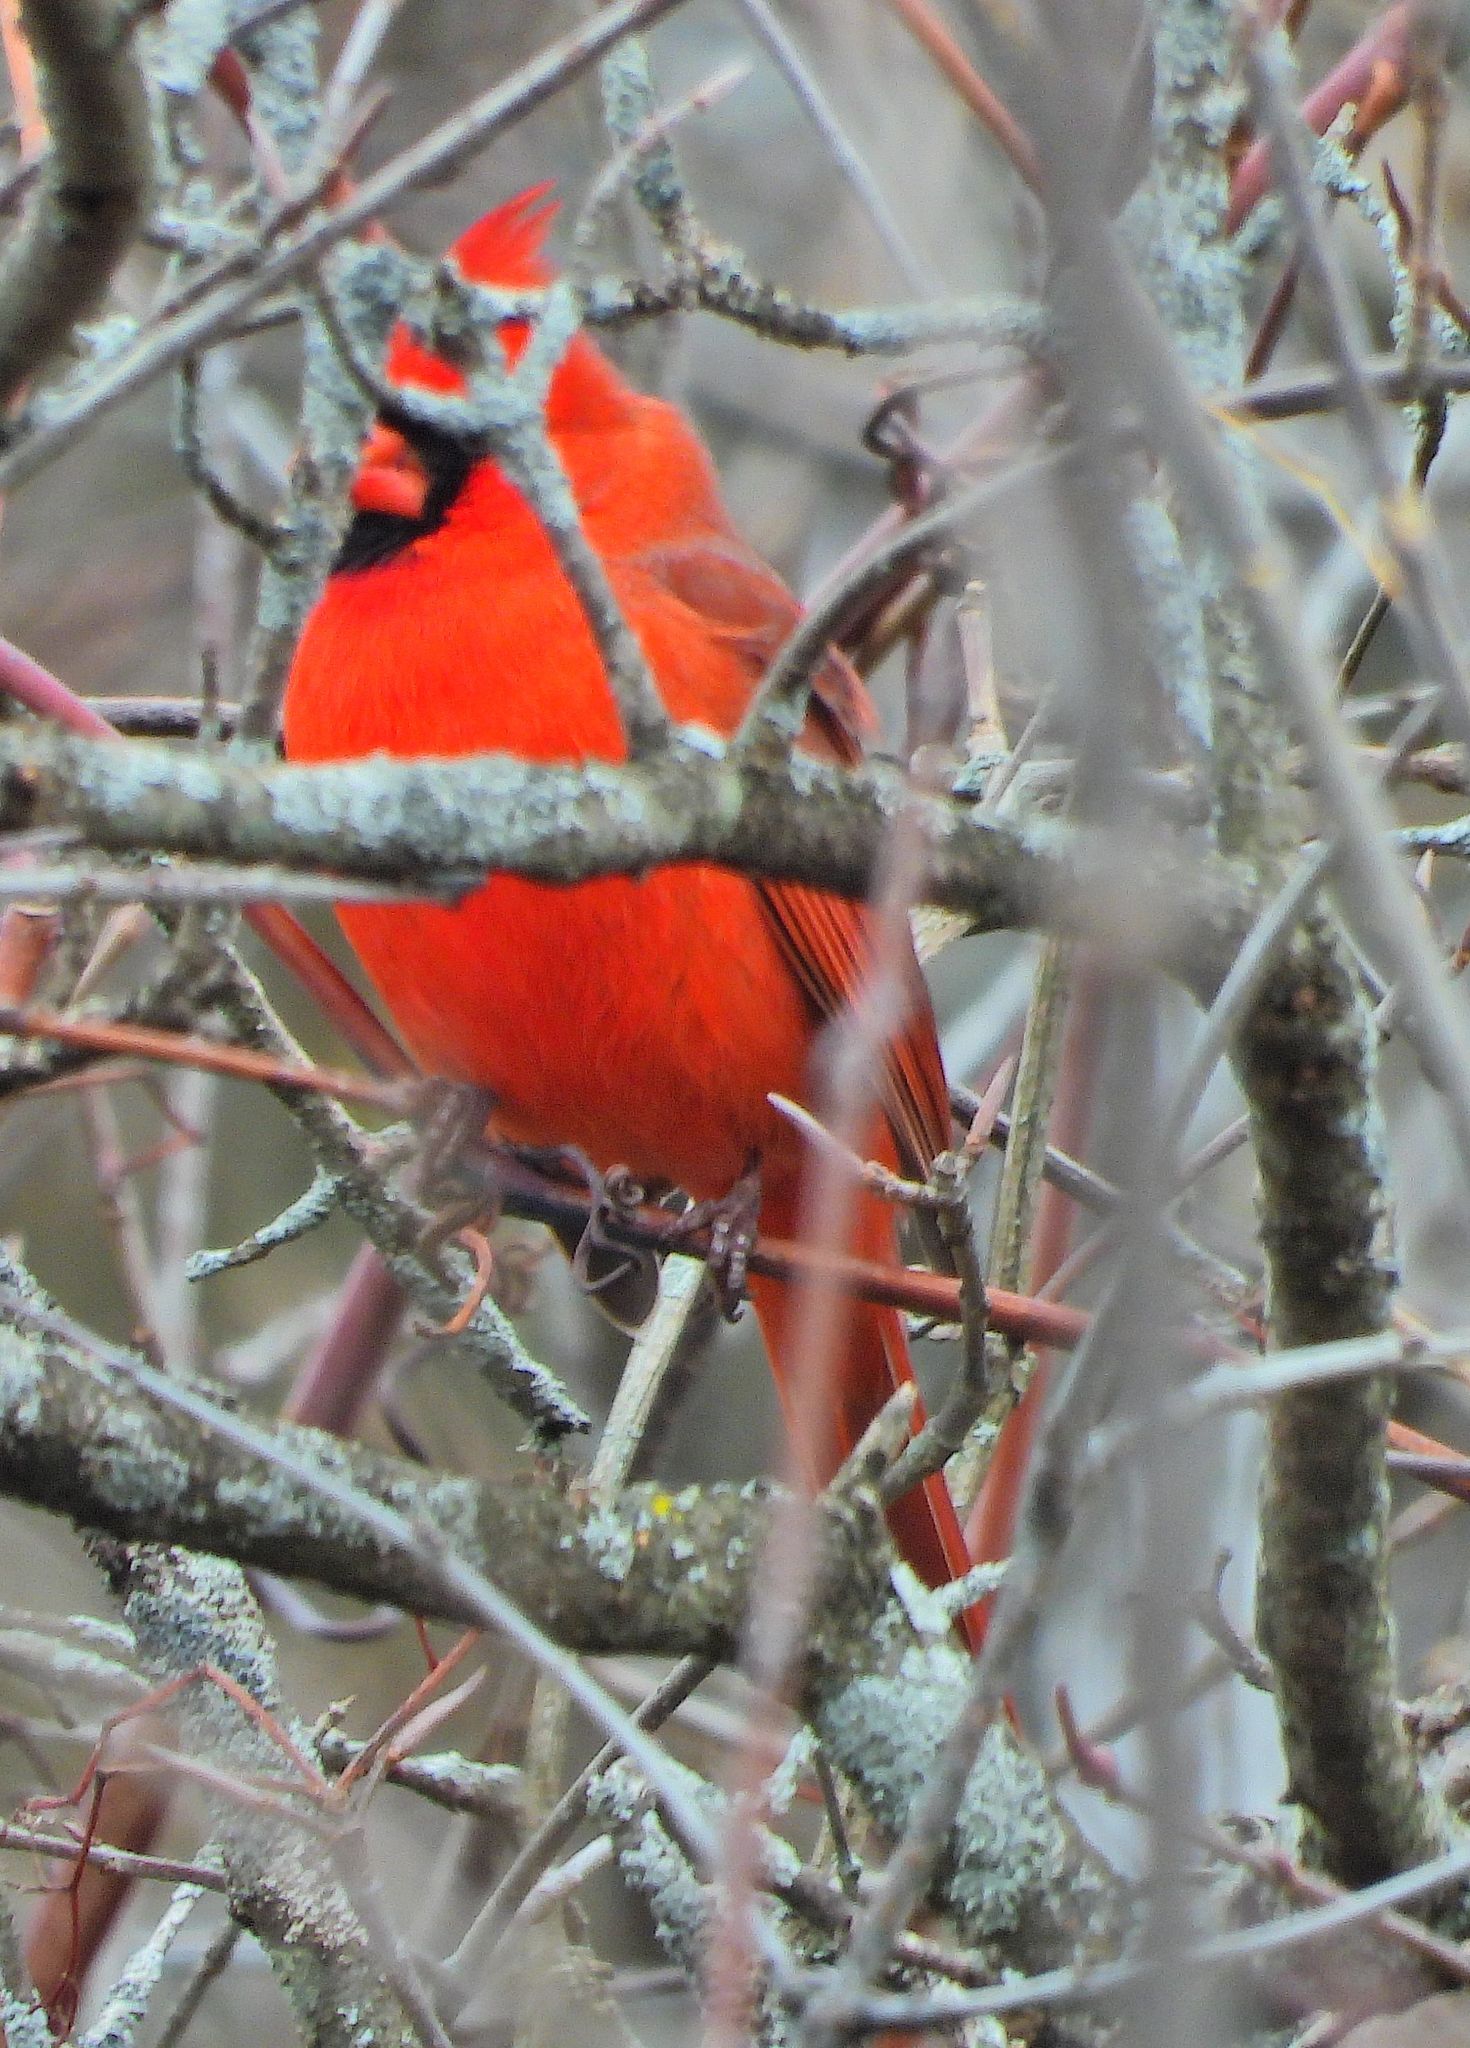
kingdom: Animalia
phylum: Chordata
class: Aves
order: Passeriformes
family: Cardinalidae
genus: Cardinalis
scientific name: Cardinalis cardinalis
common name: Northern cardinal
